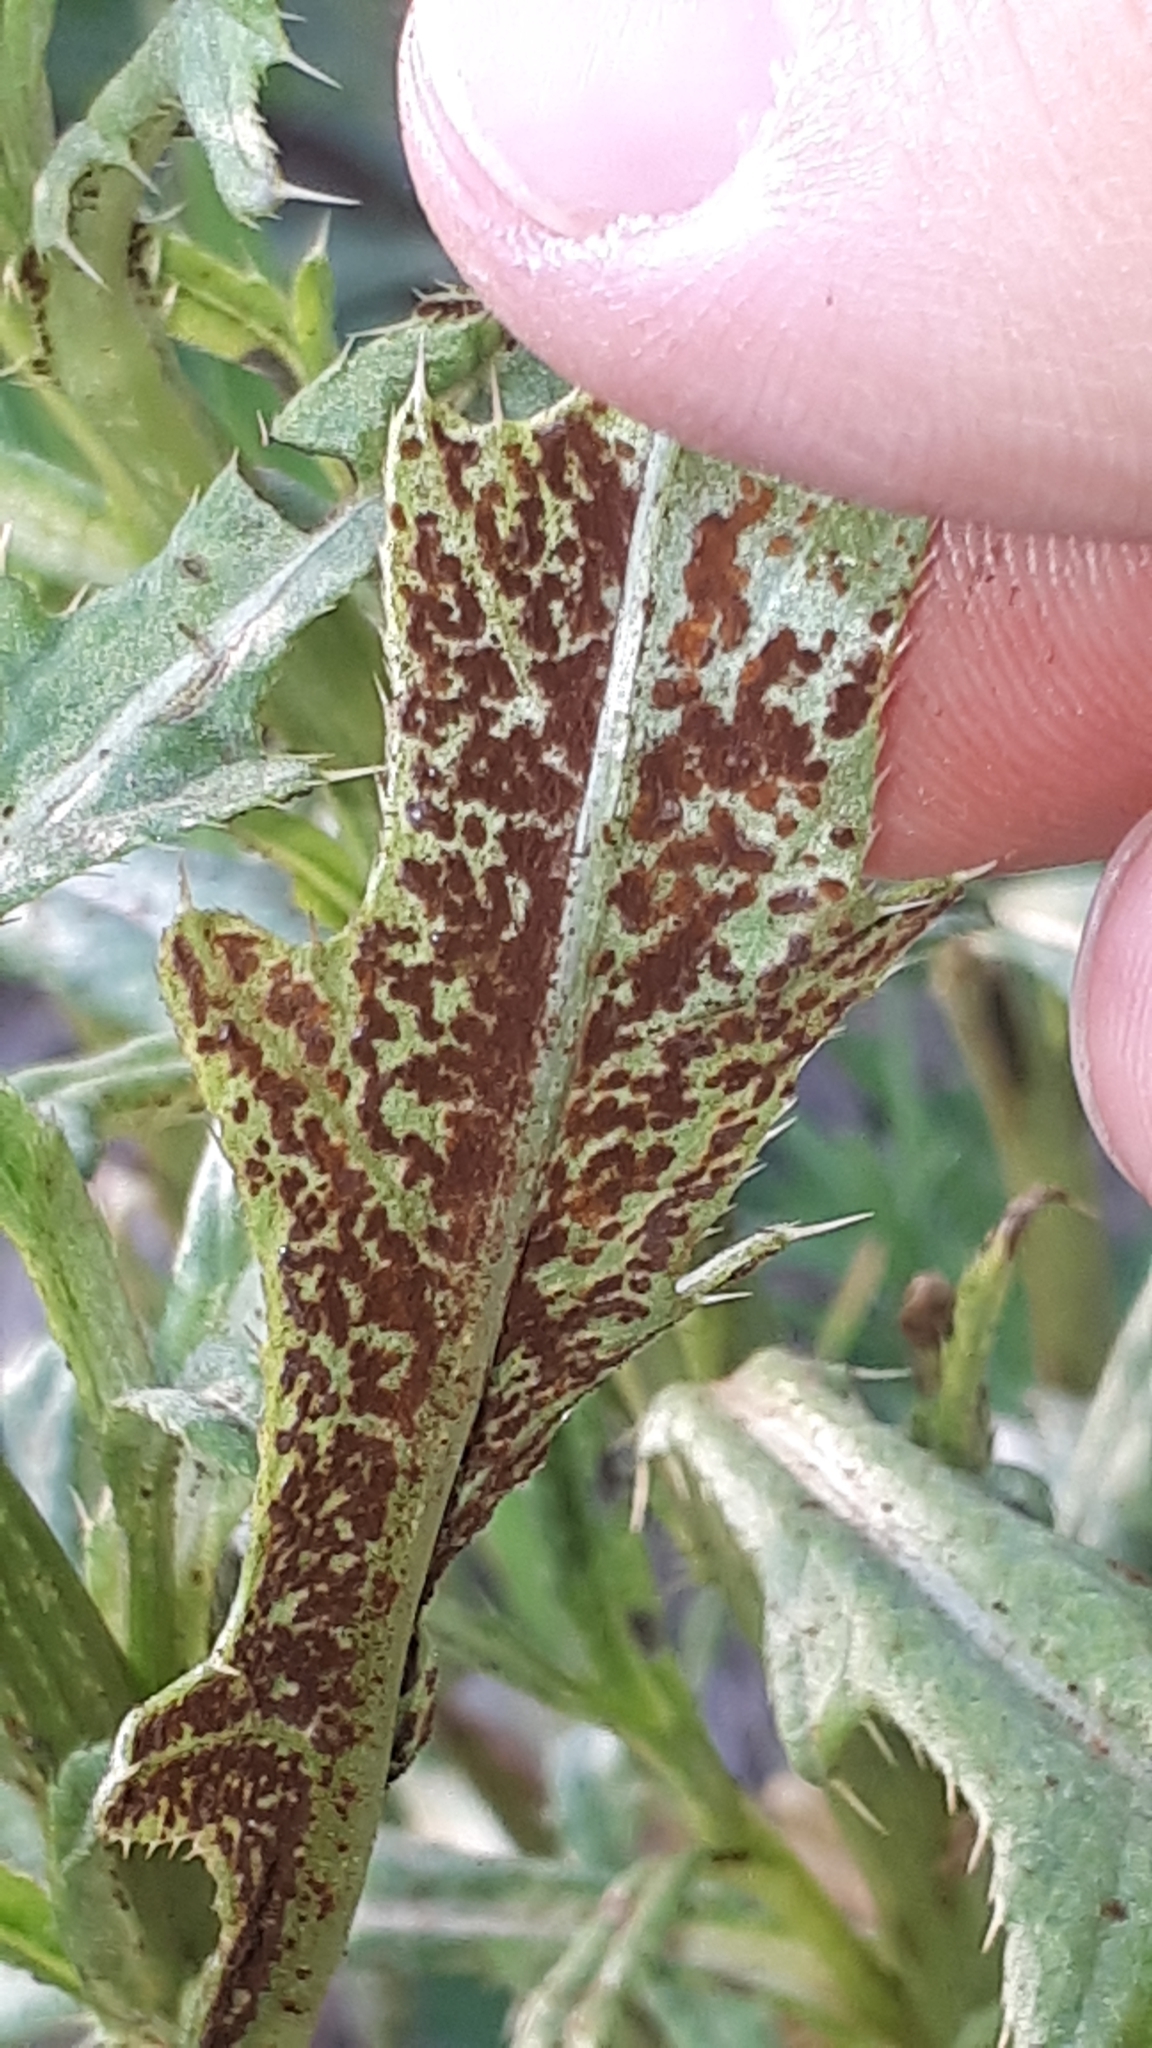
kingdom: Fungi
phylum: Basidiomycota
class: Pucciniomycetes
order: Pucciniales
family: Pucciniaceae
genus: Puccinia
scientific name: Puccinia suaveolens
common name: Thistle rust
